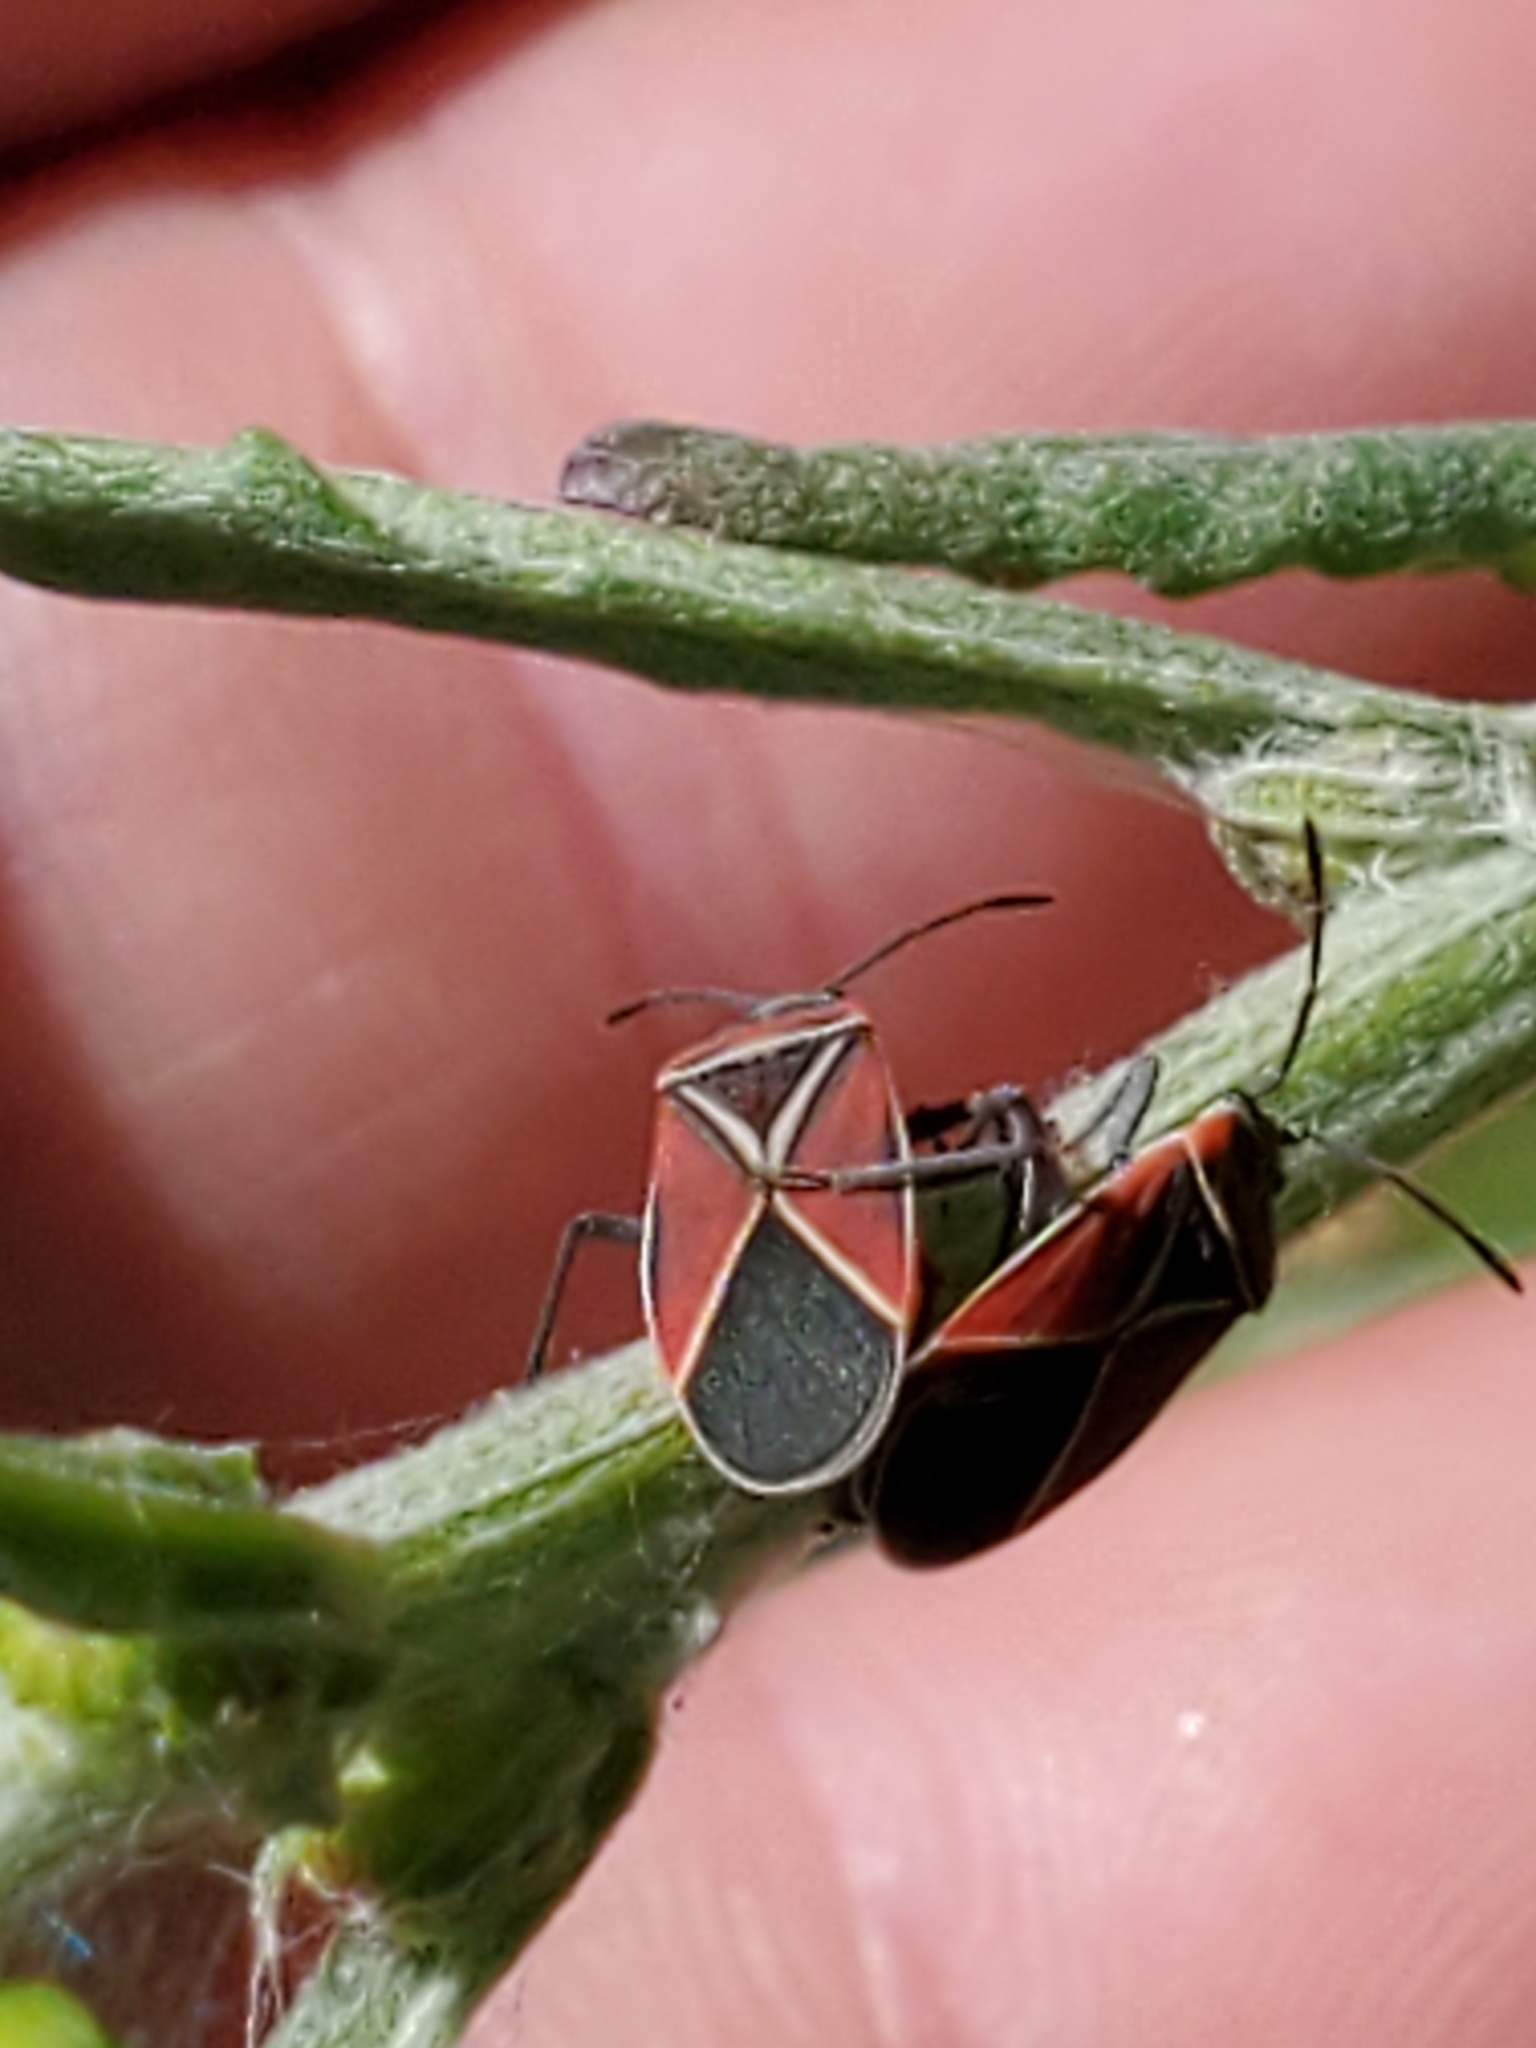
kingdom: Animalia
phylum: Arthropoda
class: Insecta
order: Hemiptera
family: Lygaeidae
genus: Neacoryphus
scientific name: Neacoryphus bicrucis
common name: Lygaeid bug
